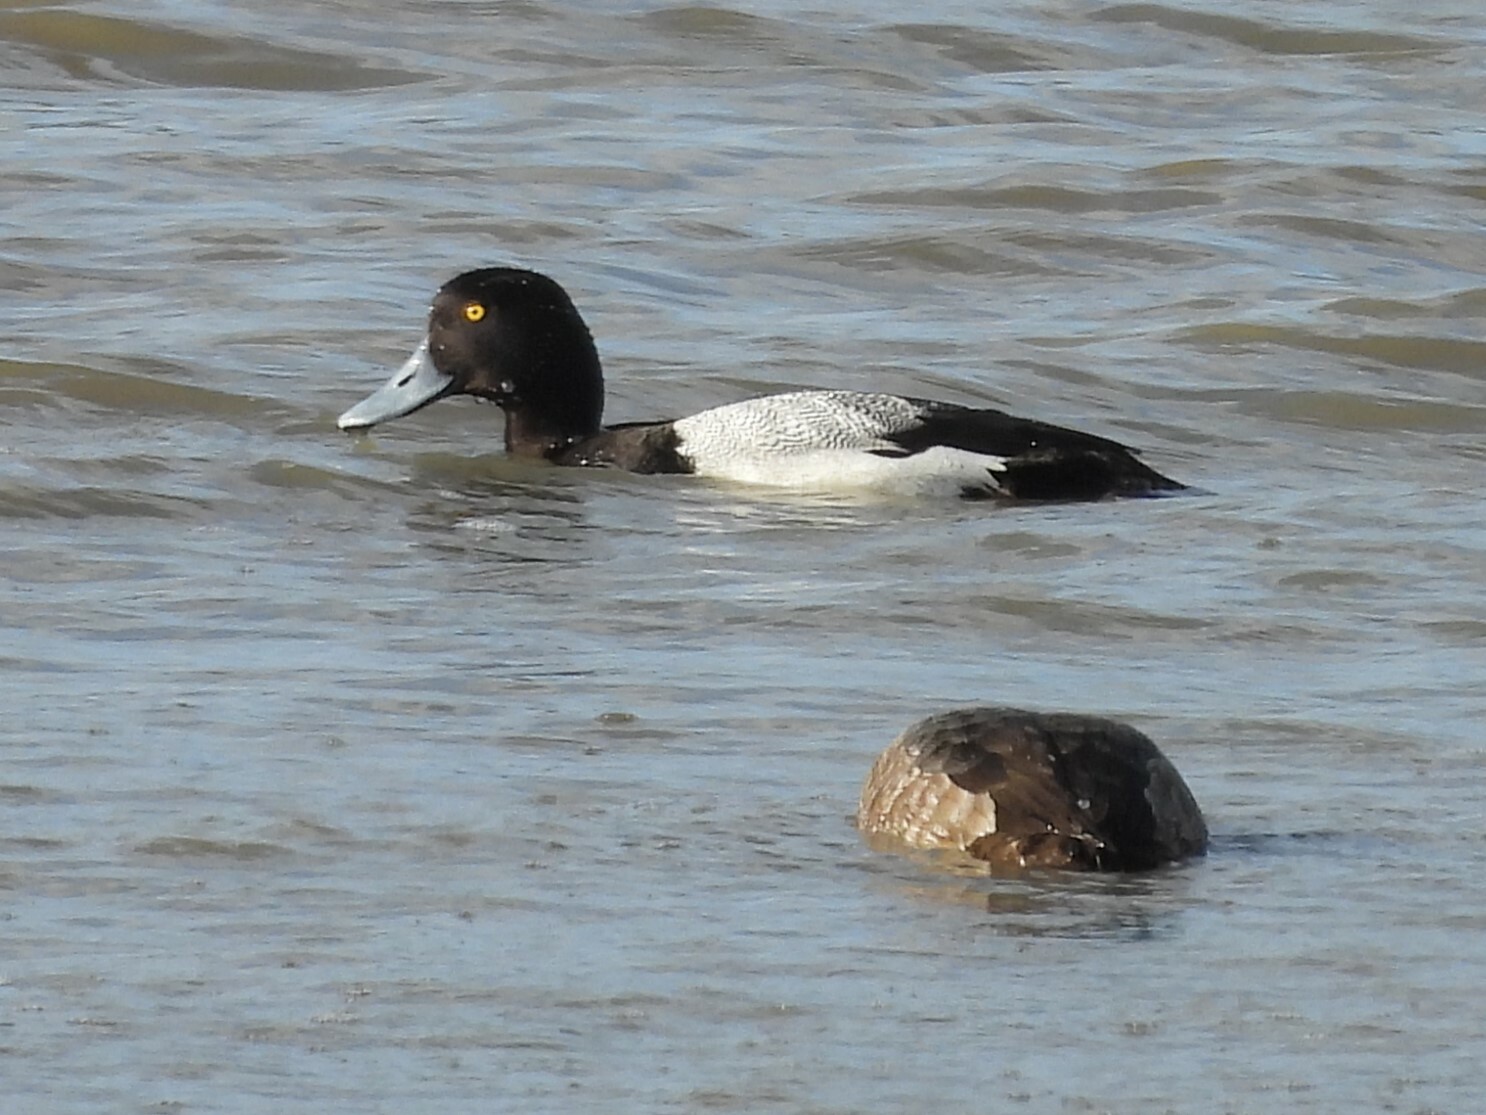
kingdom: Animalia
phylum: Chordata
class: Aves
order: Anseriformes
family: Anatidae
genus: Aythya
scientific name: Aythya affinis
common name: Lesser scaup
